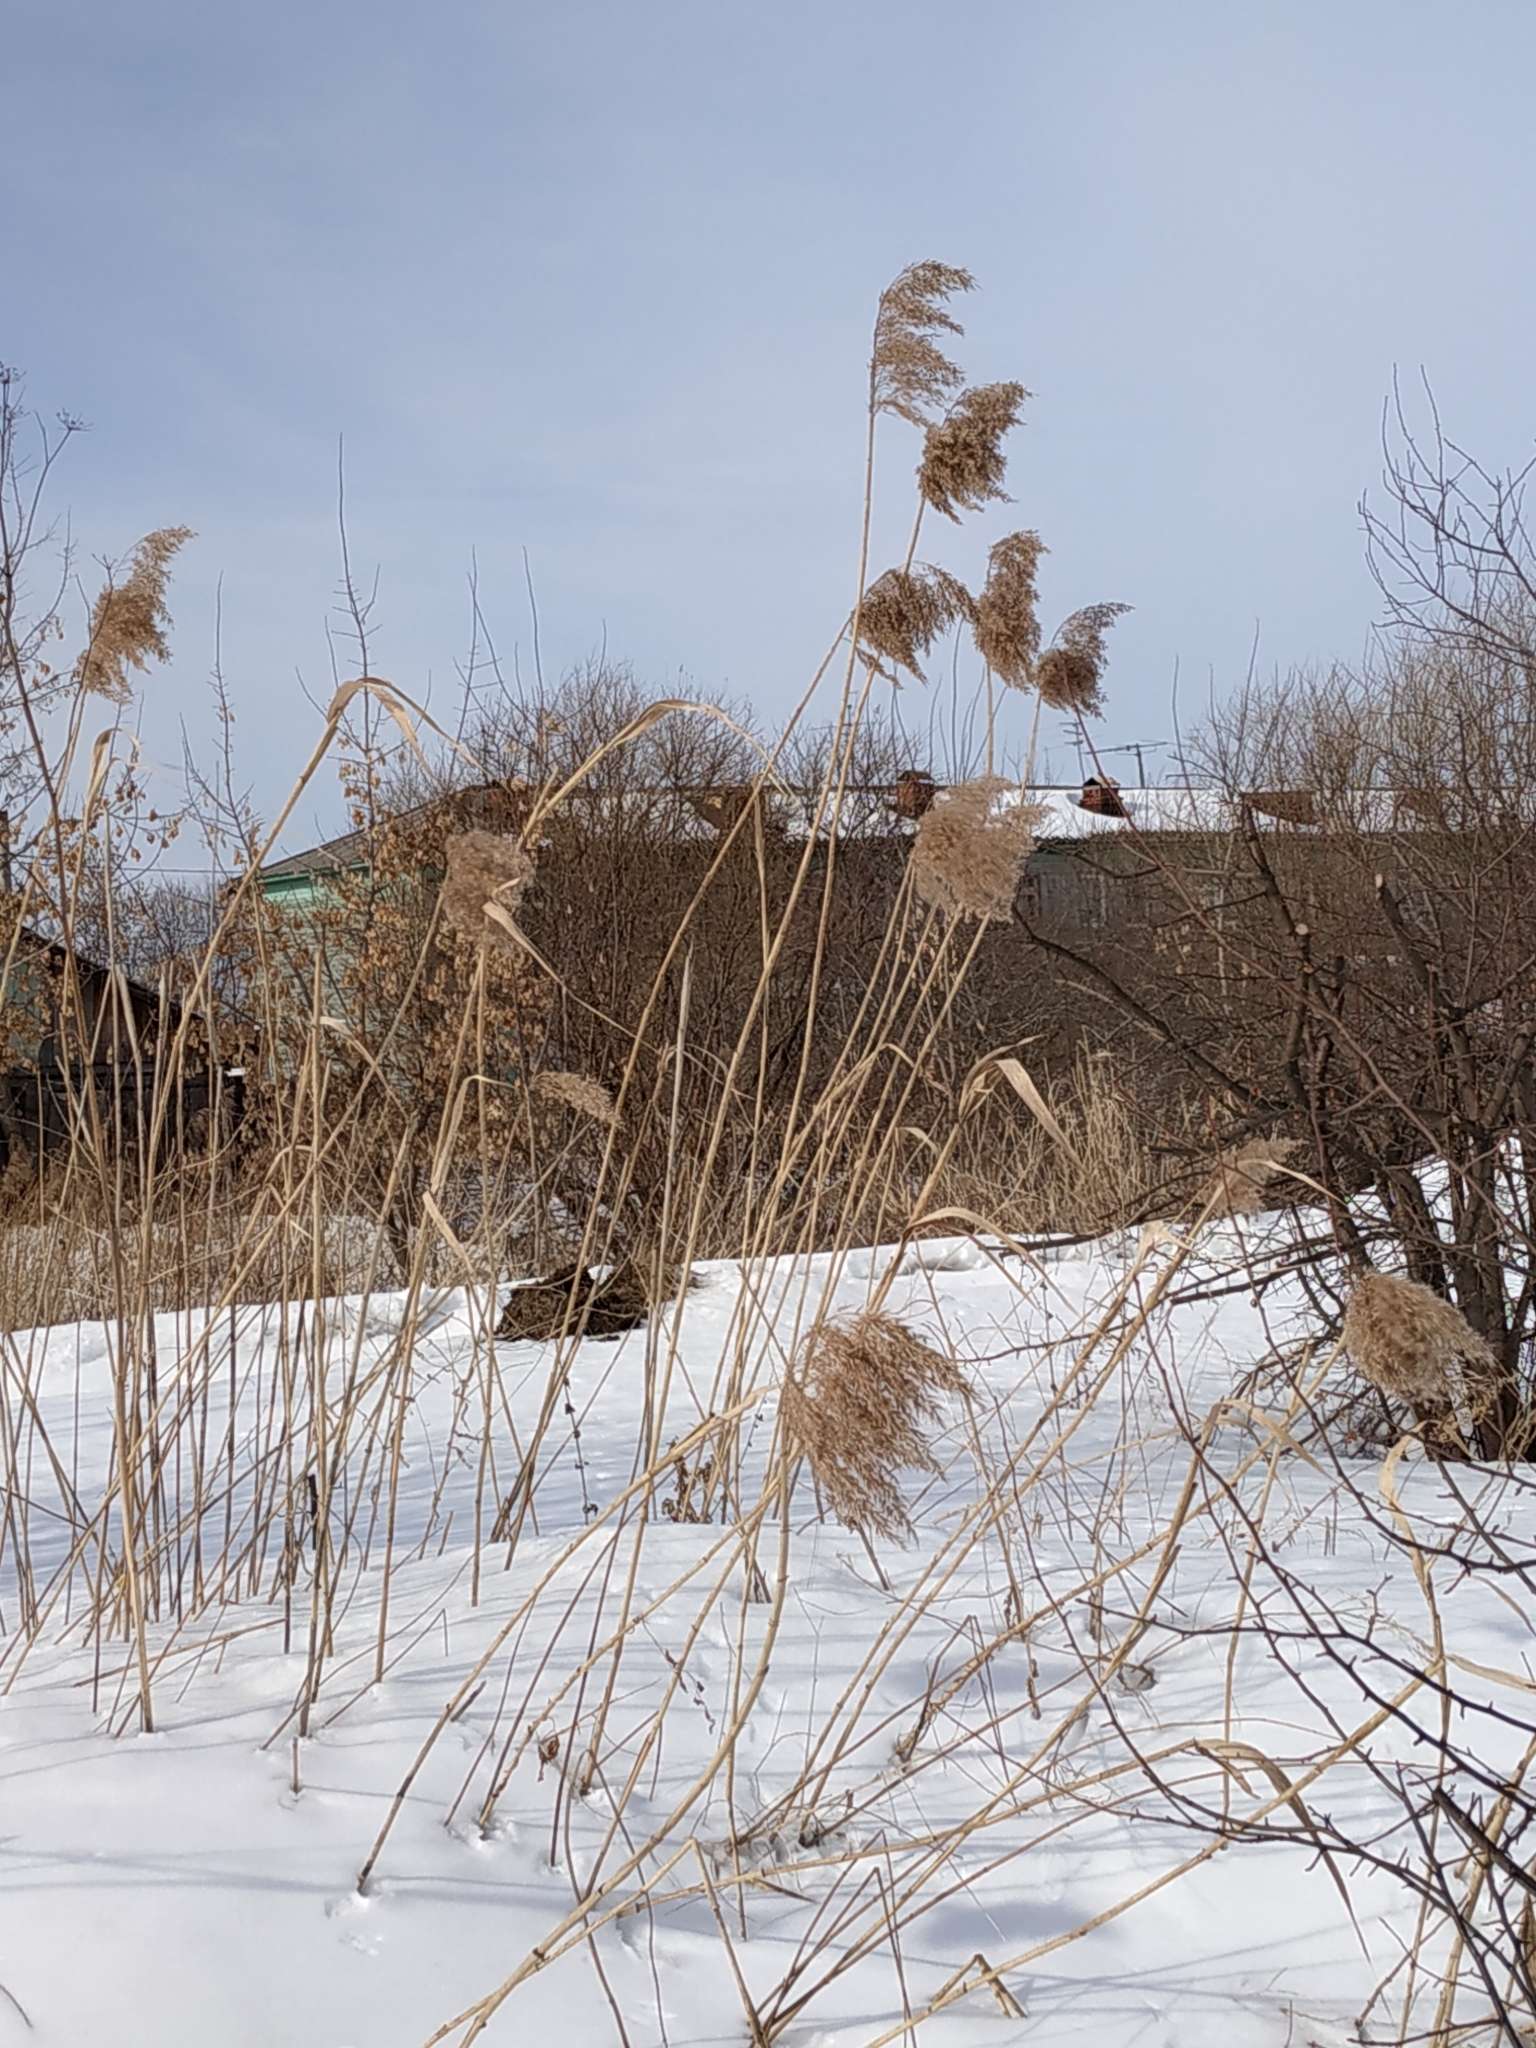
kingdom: Plantae
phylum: Tracheophyta
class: Liliopsida
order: Poales
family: Poaceae
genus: Phragmites
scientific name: Phragmites australis
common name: Common reed
